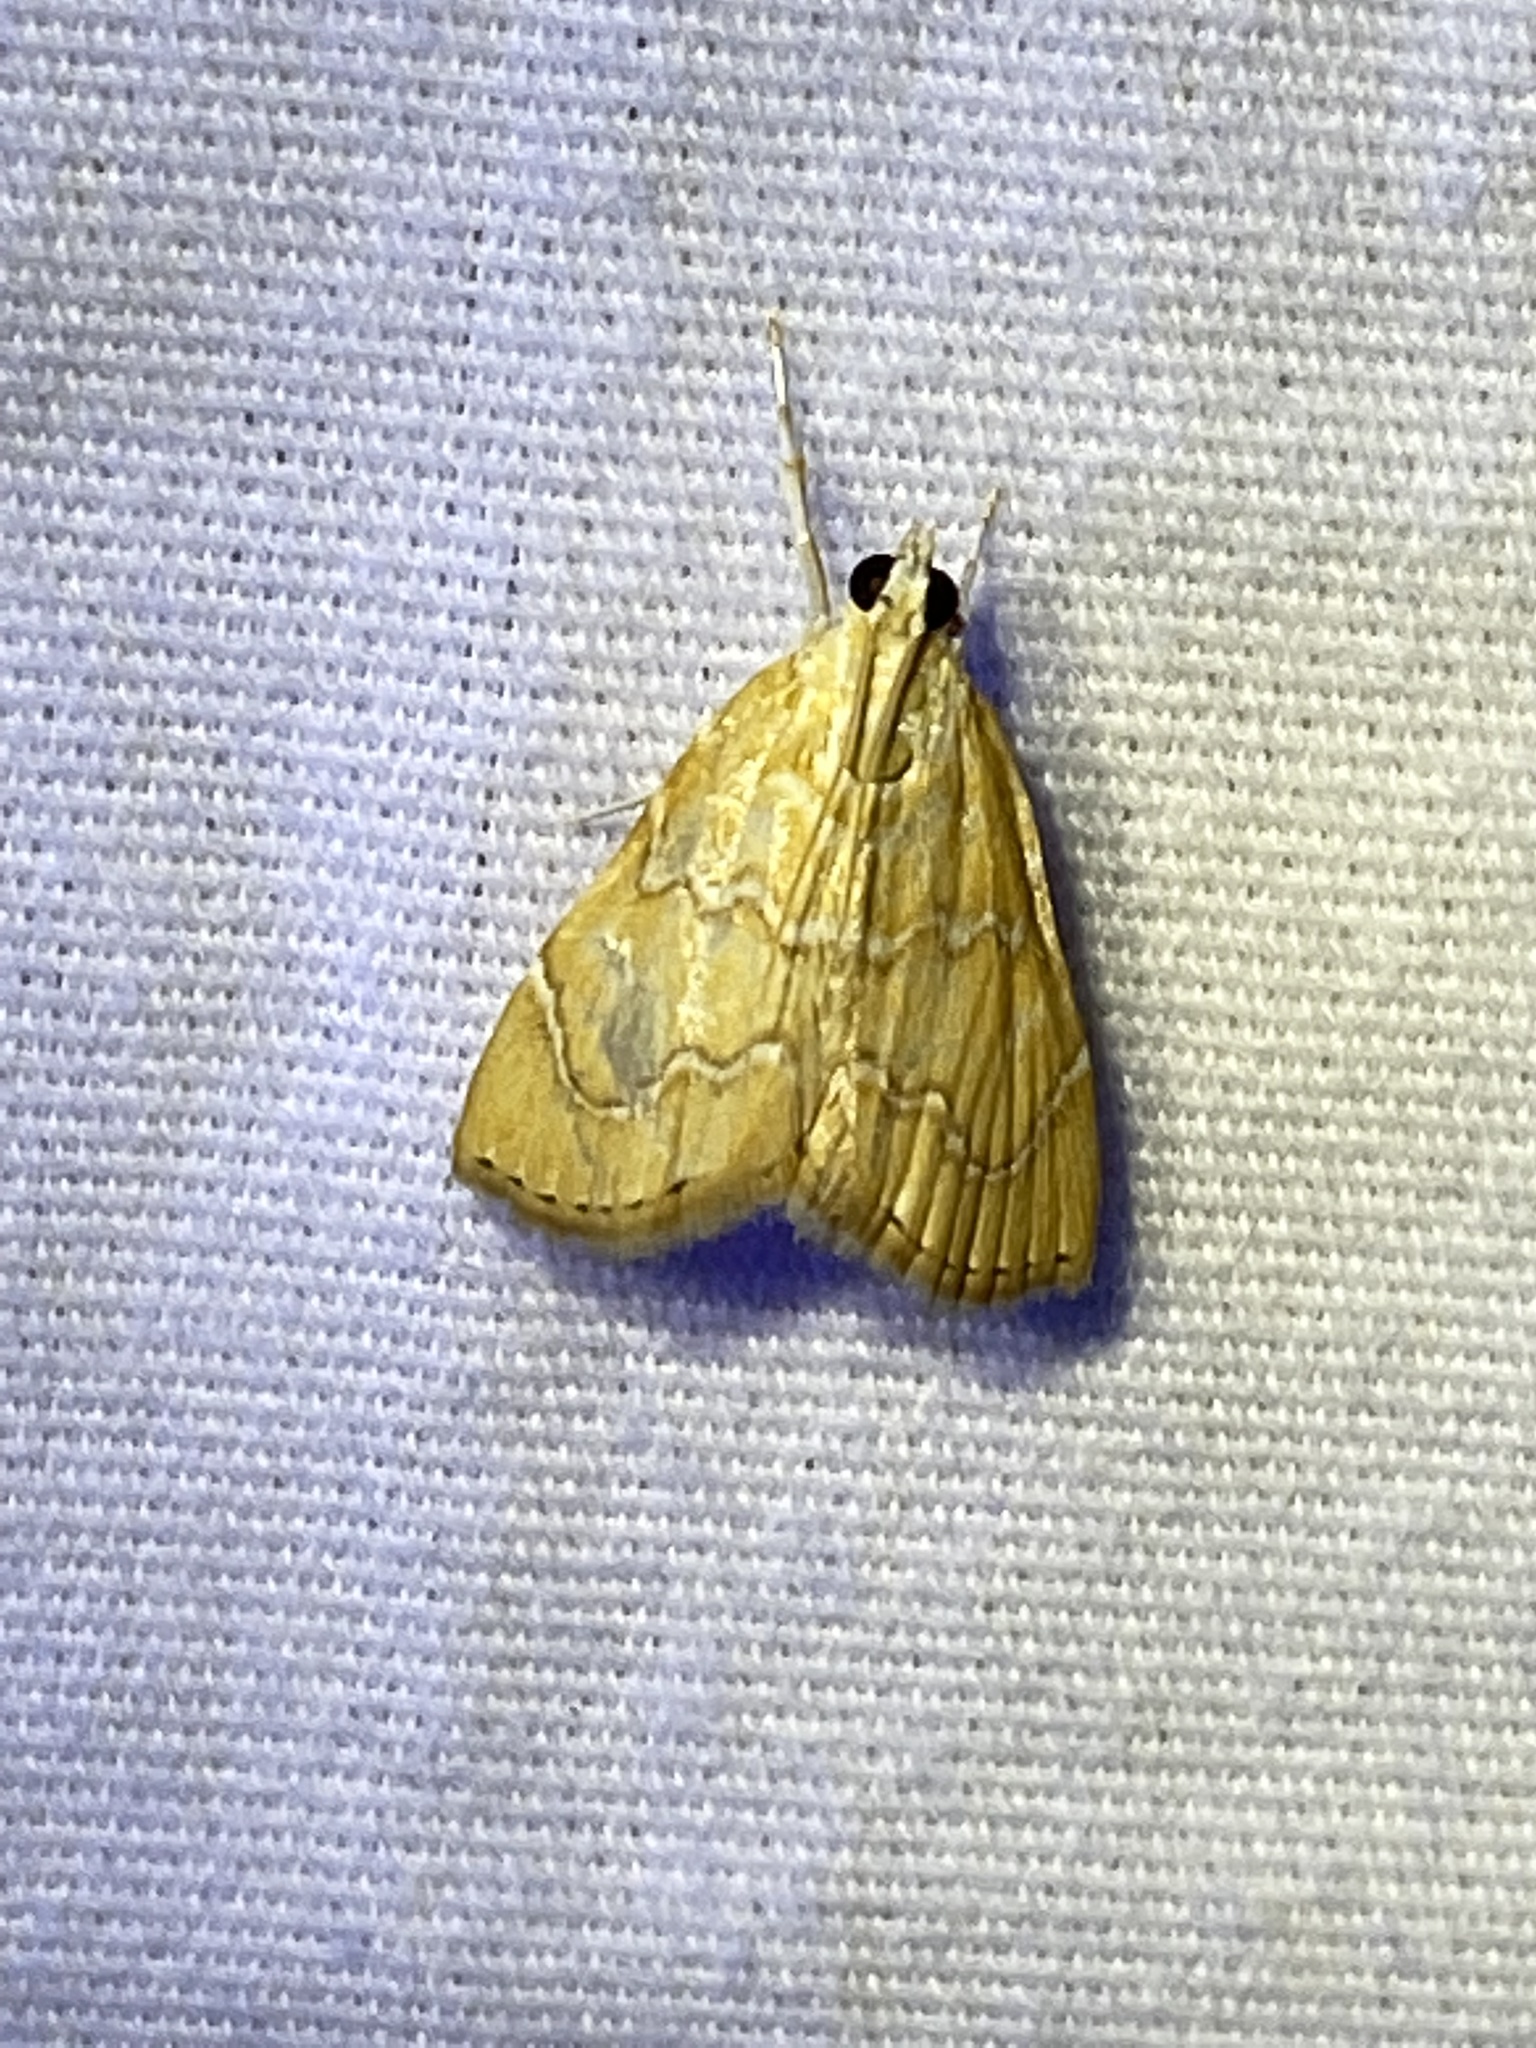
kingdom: Animalia
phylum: Arthropoda
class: Insecta
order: Lepidoptera
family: Crambidae
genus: Glaphyria
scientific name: Glaphyria sesquistrialis
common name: White-roped glaphyria
